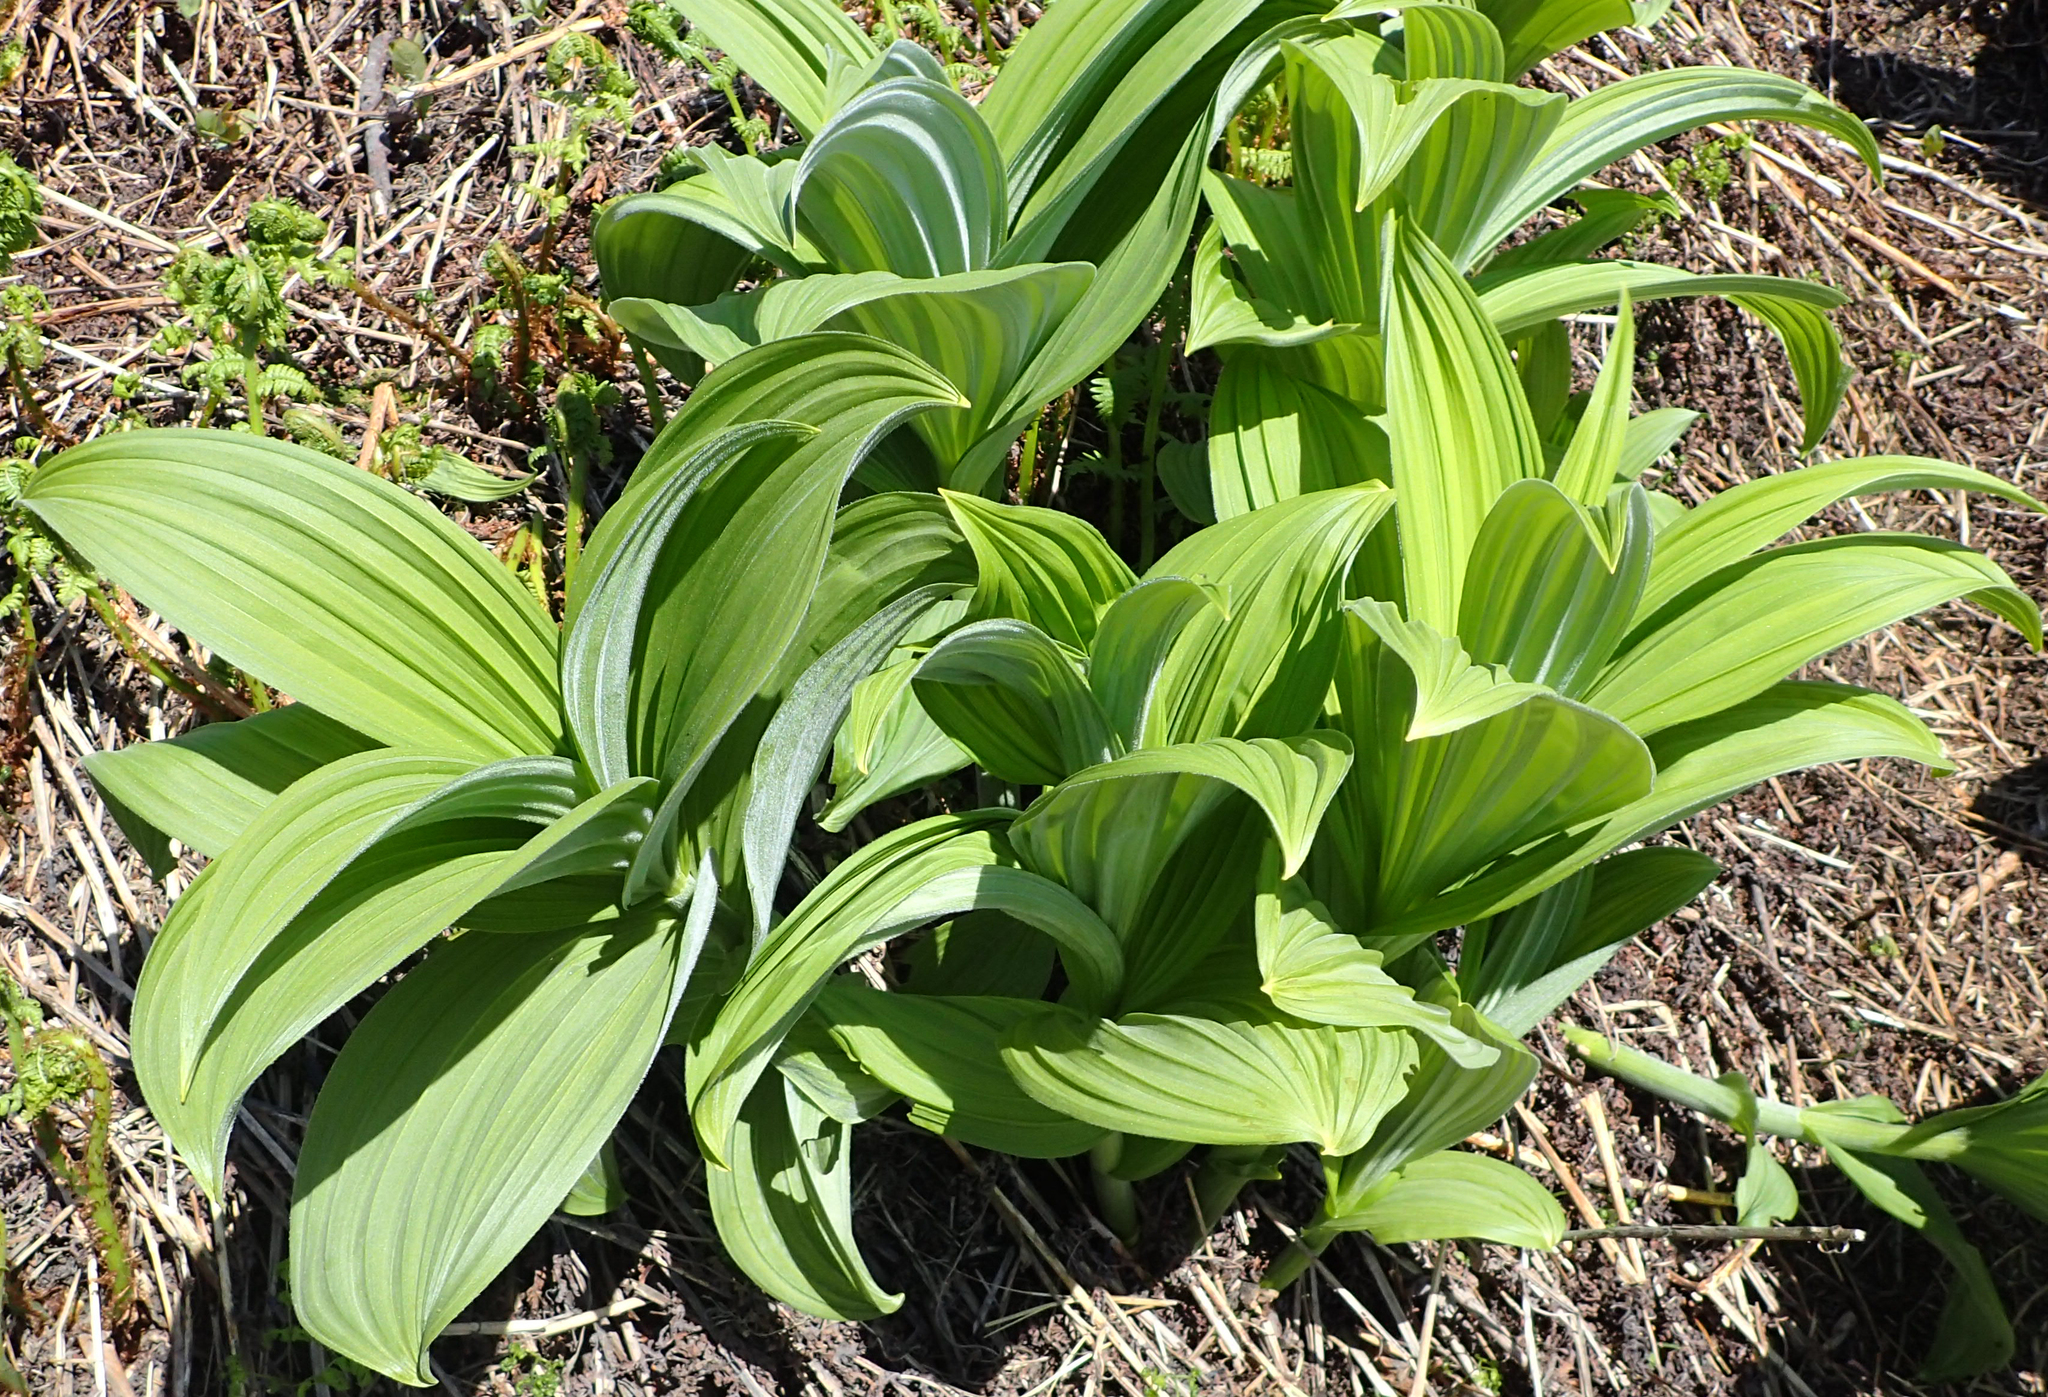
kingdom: Plantae
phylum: Tracheophyta
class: Liliopsida
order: Liliales
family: Melanthiaceae
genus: Veratrum
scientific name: Veratrum viride
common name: American false hellebore
